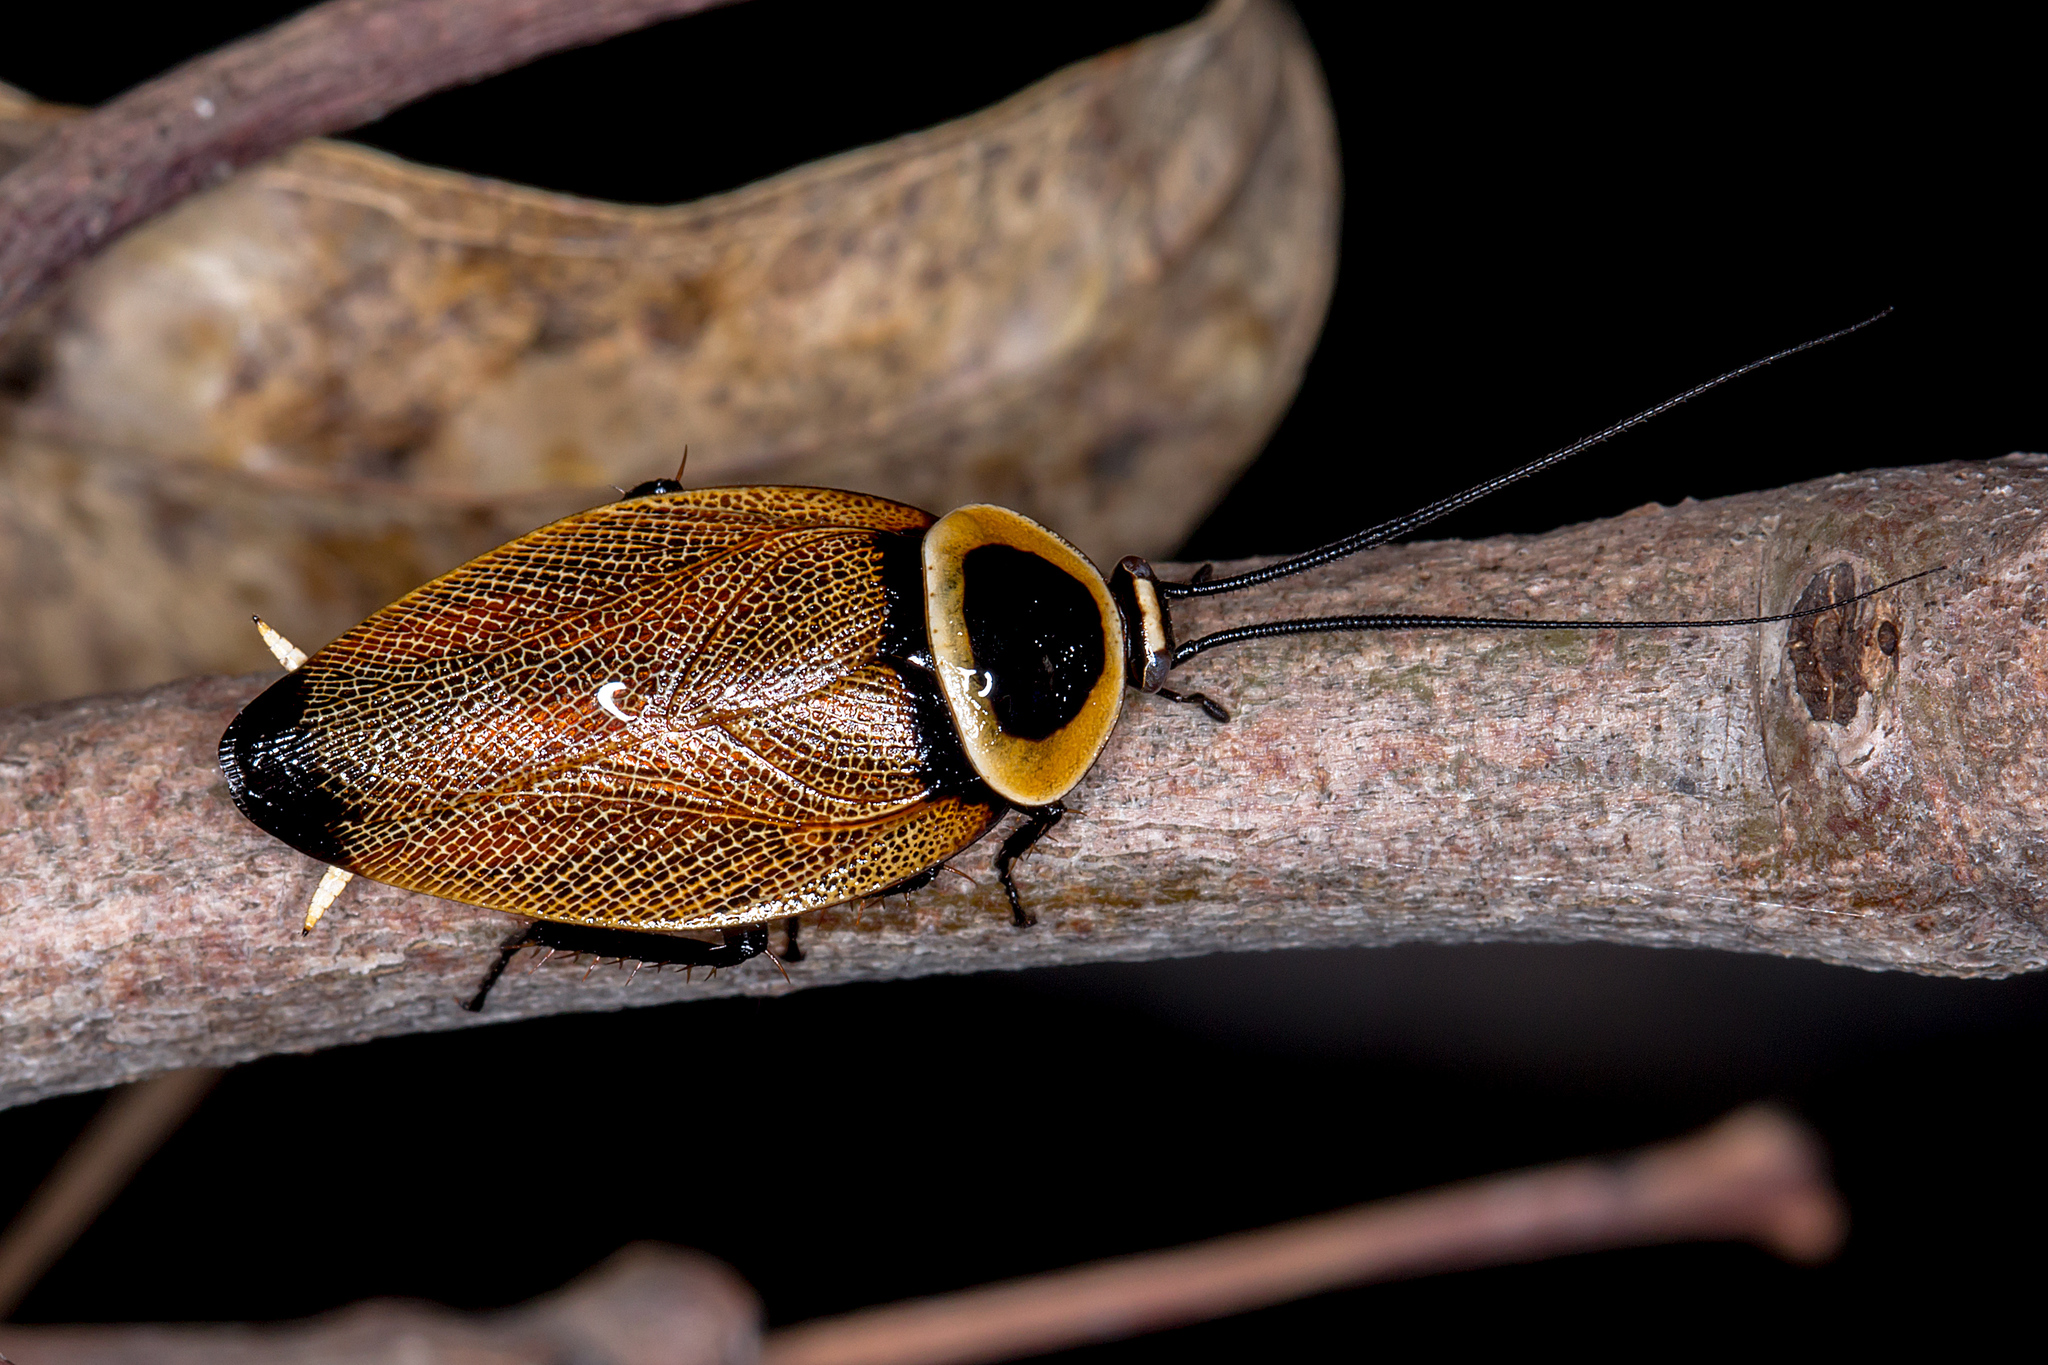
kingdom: Animalia
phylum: Arthropoda
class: Insecta
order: Blattodea
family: Ectobiidae
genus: Ellipsidion
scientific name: Ellipsidion australe
